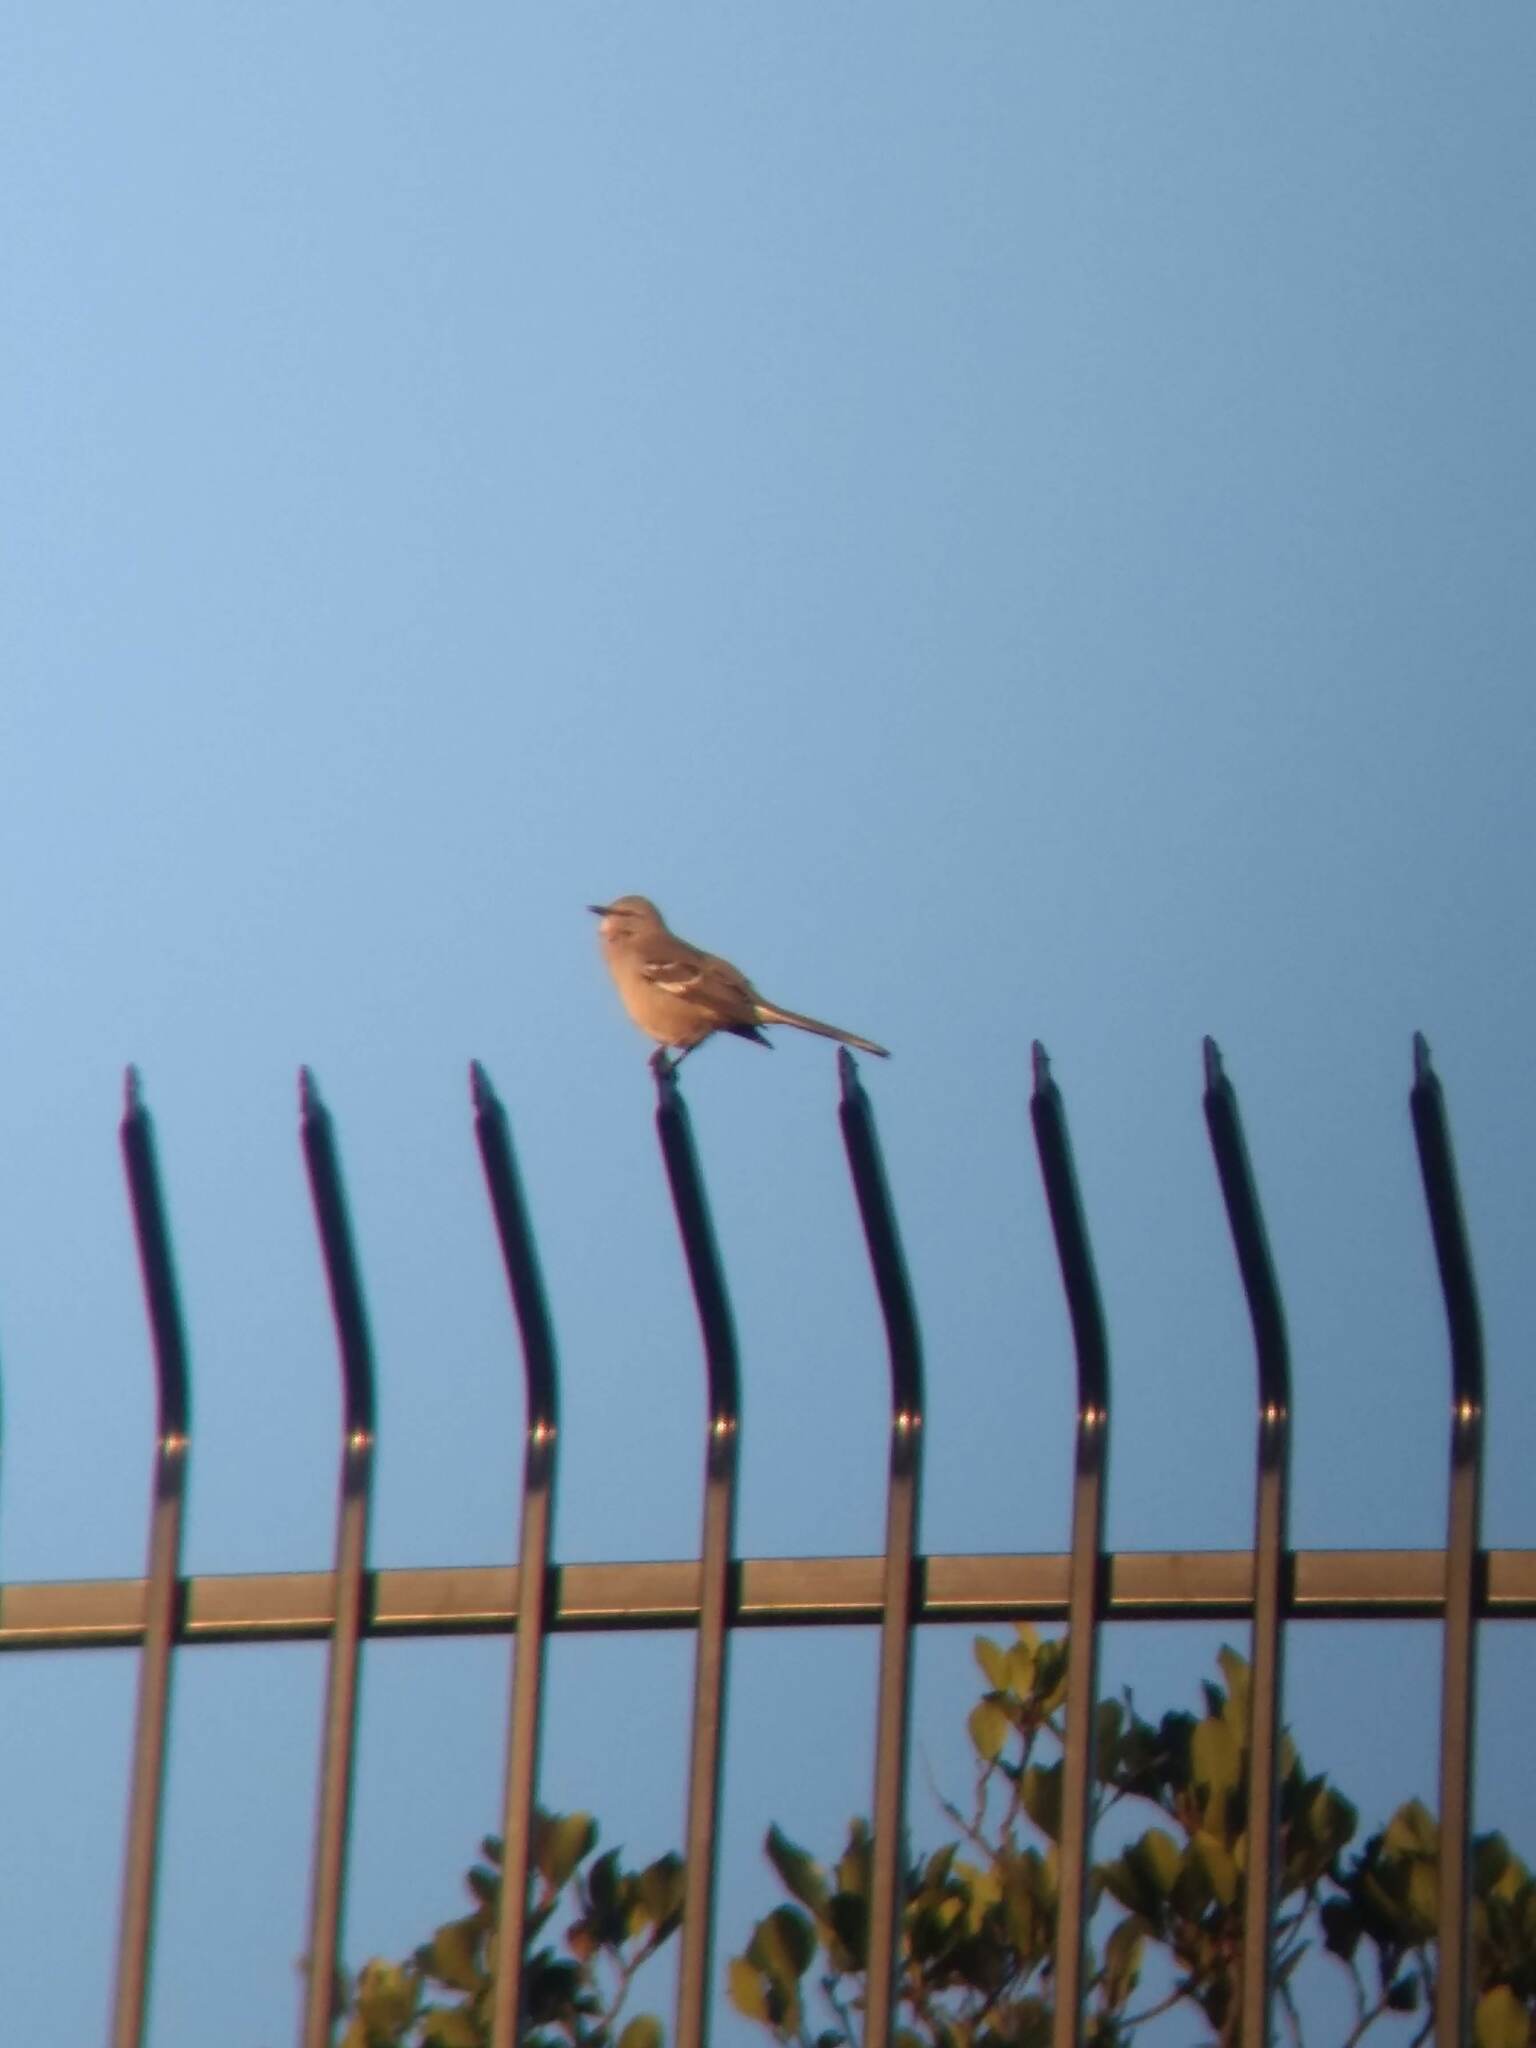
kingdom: Animalia
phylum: Chordata
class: Aves
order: Passeriformes
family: Mimidae
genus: Mimus
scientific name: Mimus polyglottos
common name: Northern mockingbird
